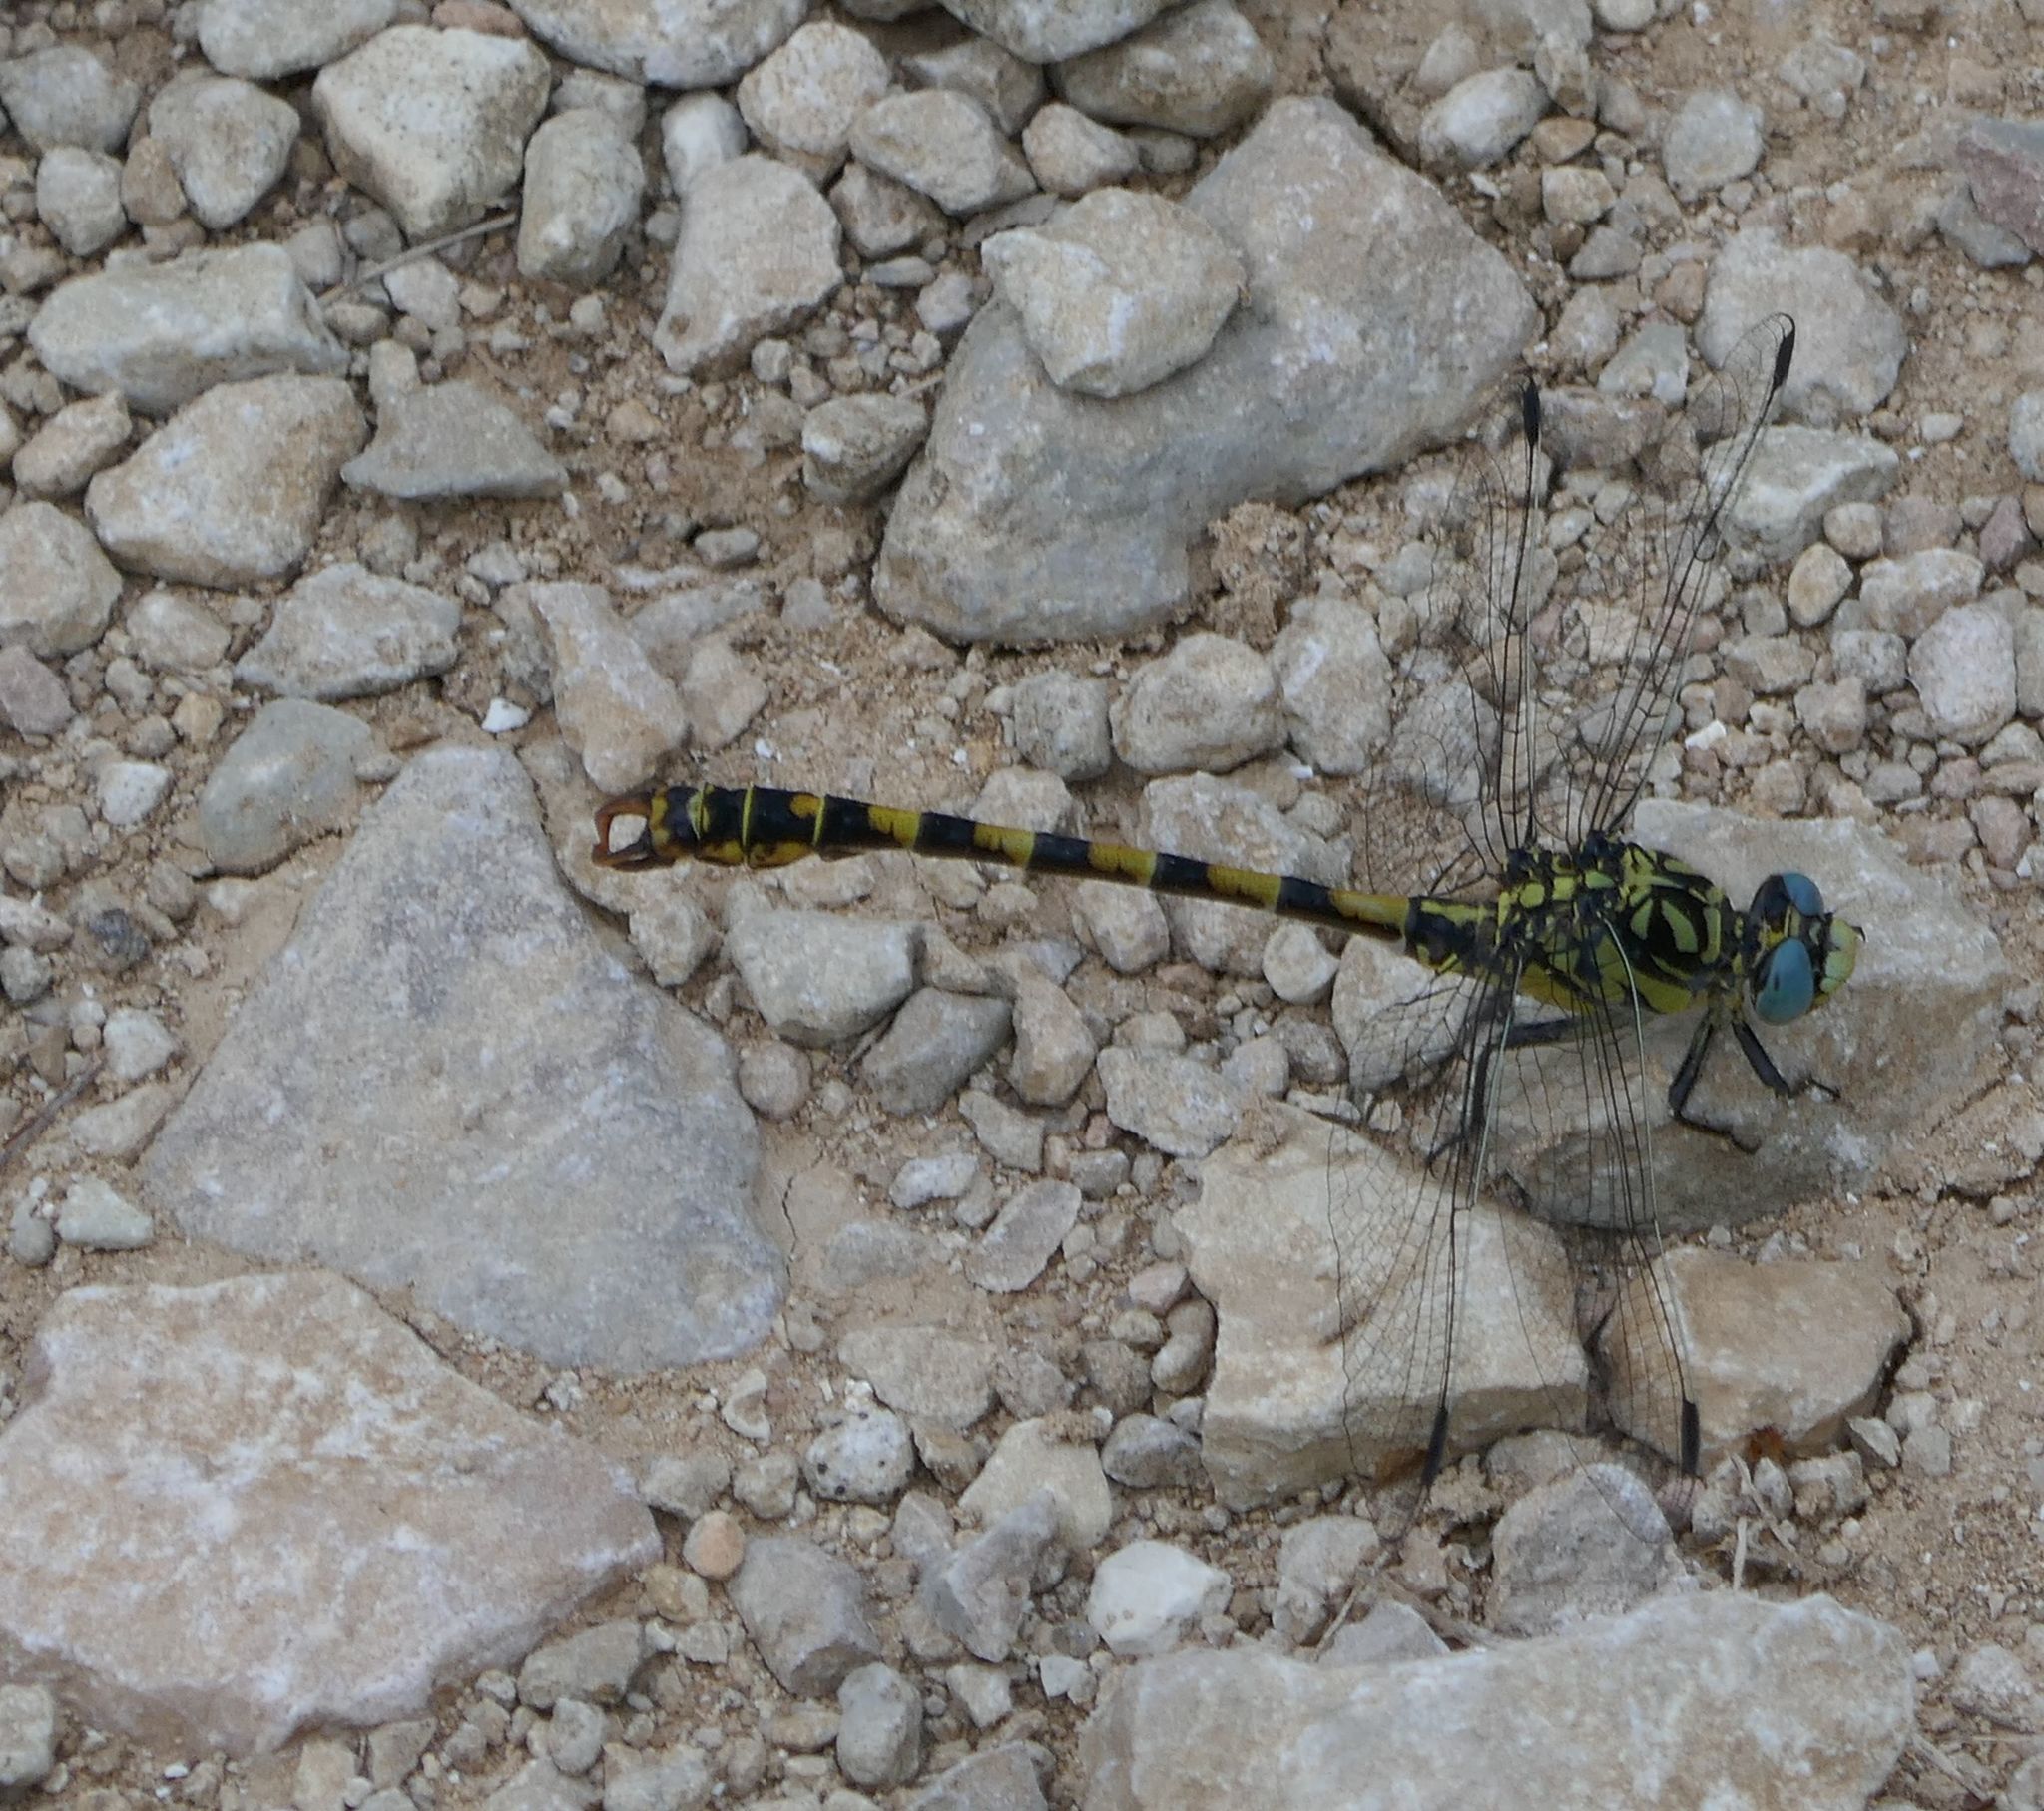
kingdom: Animalia
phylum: Arthropoda
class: Insecta
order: Odonata
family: Gomphidae
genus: Onychogomphus
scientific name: Onychogomphus forcipatus
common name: Small pincertail
